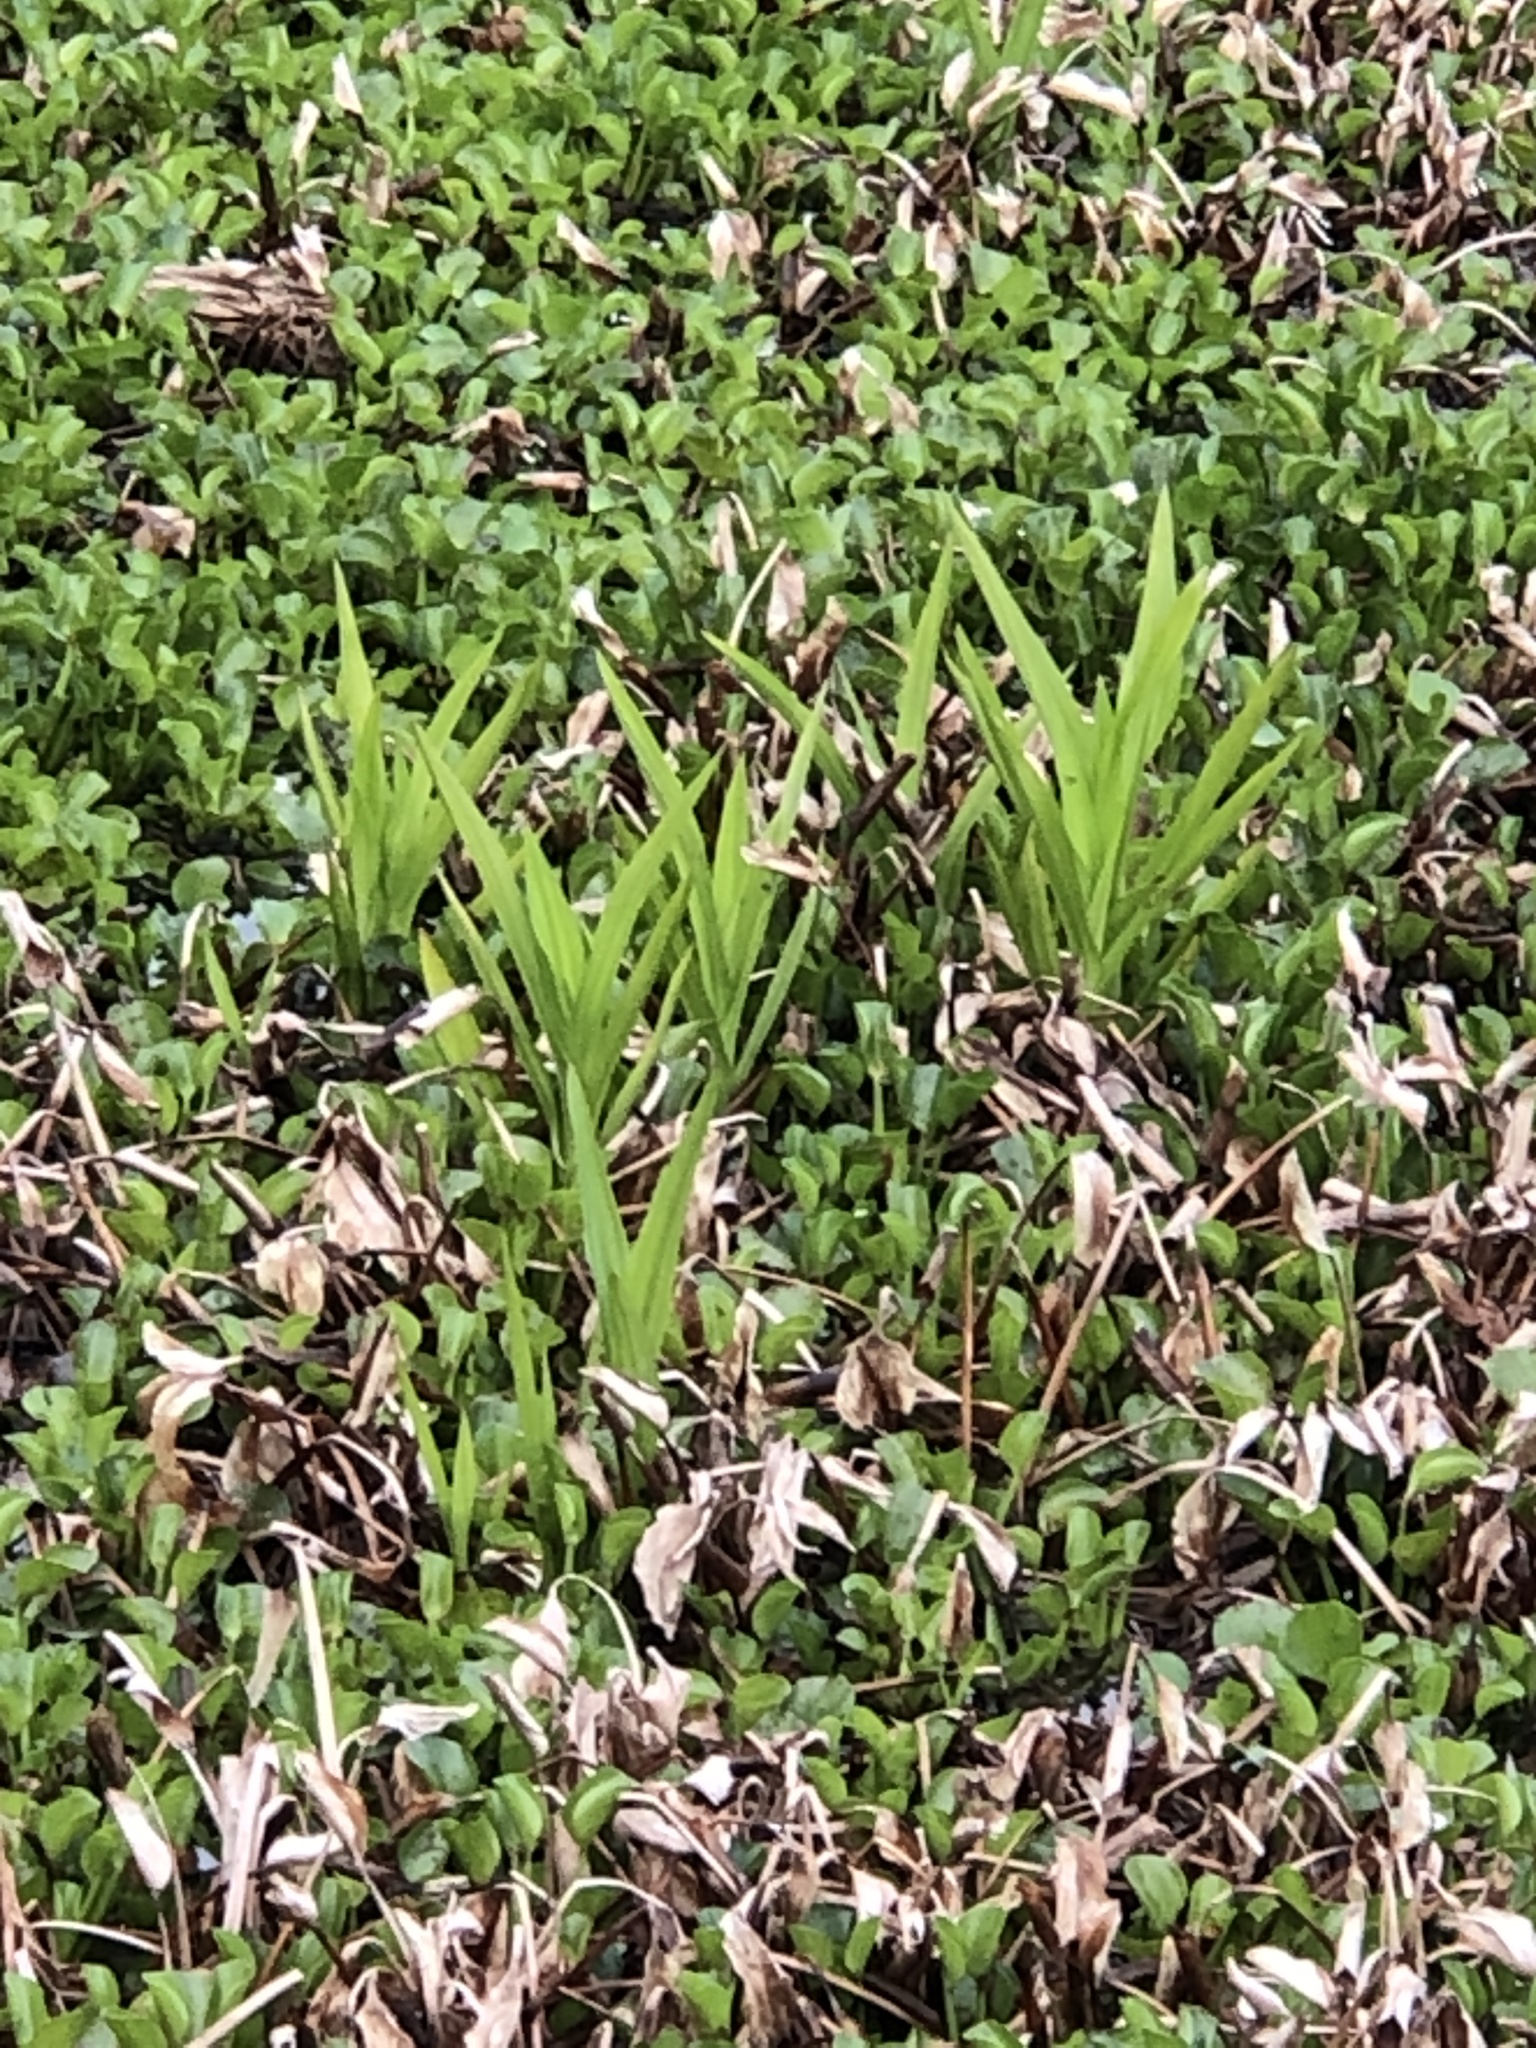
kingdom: Plantae
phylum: Tracheophyta
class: Liliopsida
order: Asparagales
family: Orchidaceae
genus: Habenaria
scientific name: Habenaria repens
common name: Water orchid
